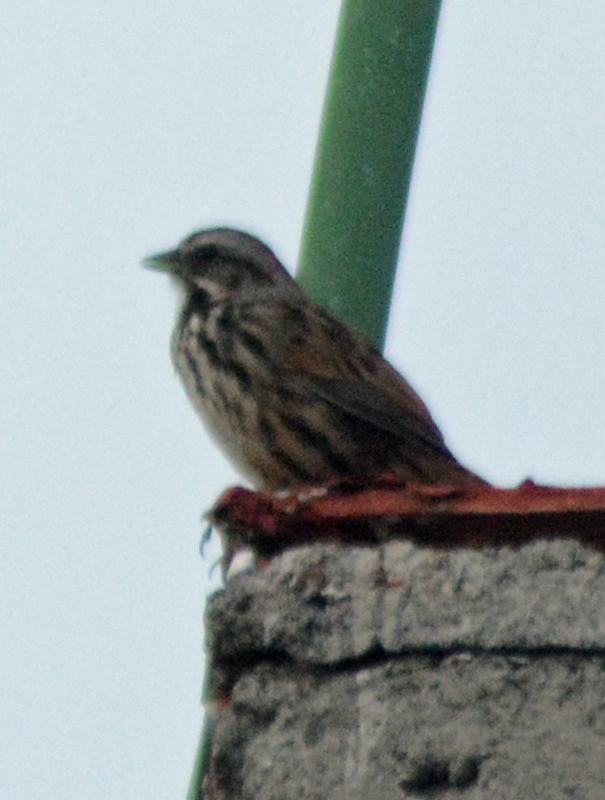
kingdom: Animalia
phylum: Chordata
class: Aves
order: Passeriformes
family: Passerellidae
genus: Melospiza
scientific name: Melospiza melodia
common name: Song sparrow
